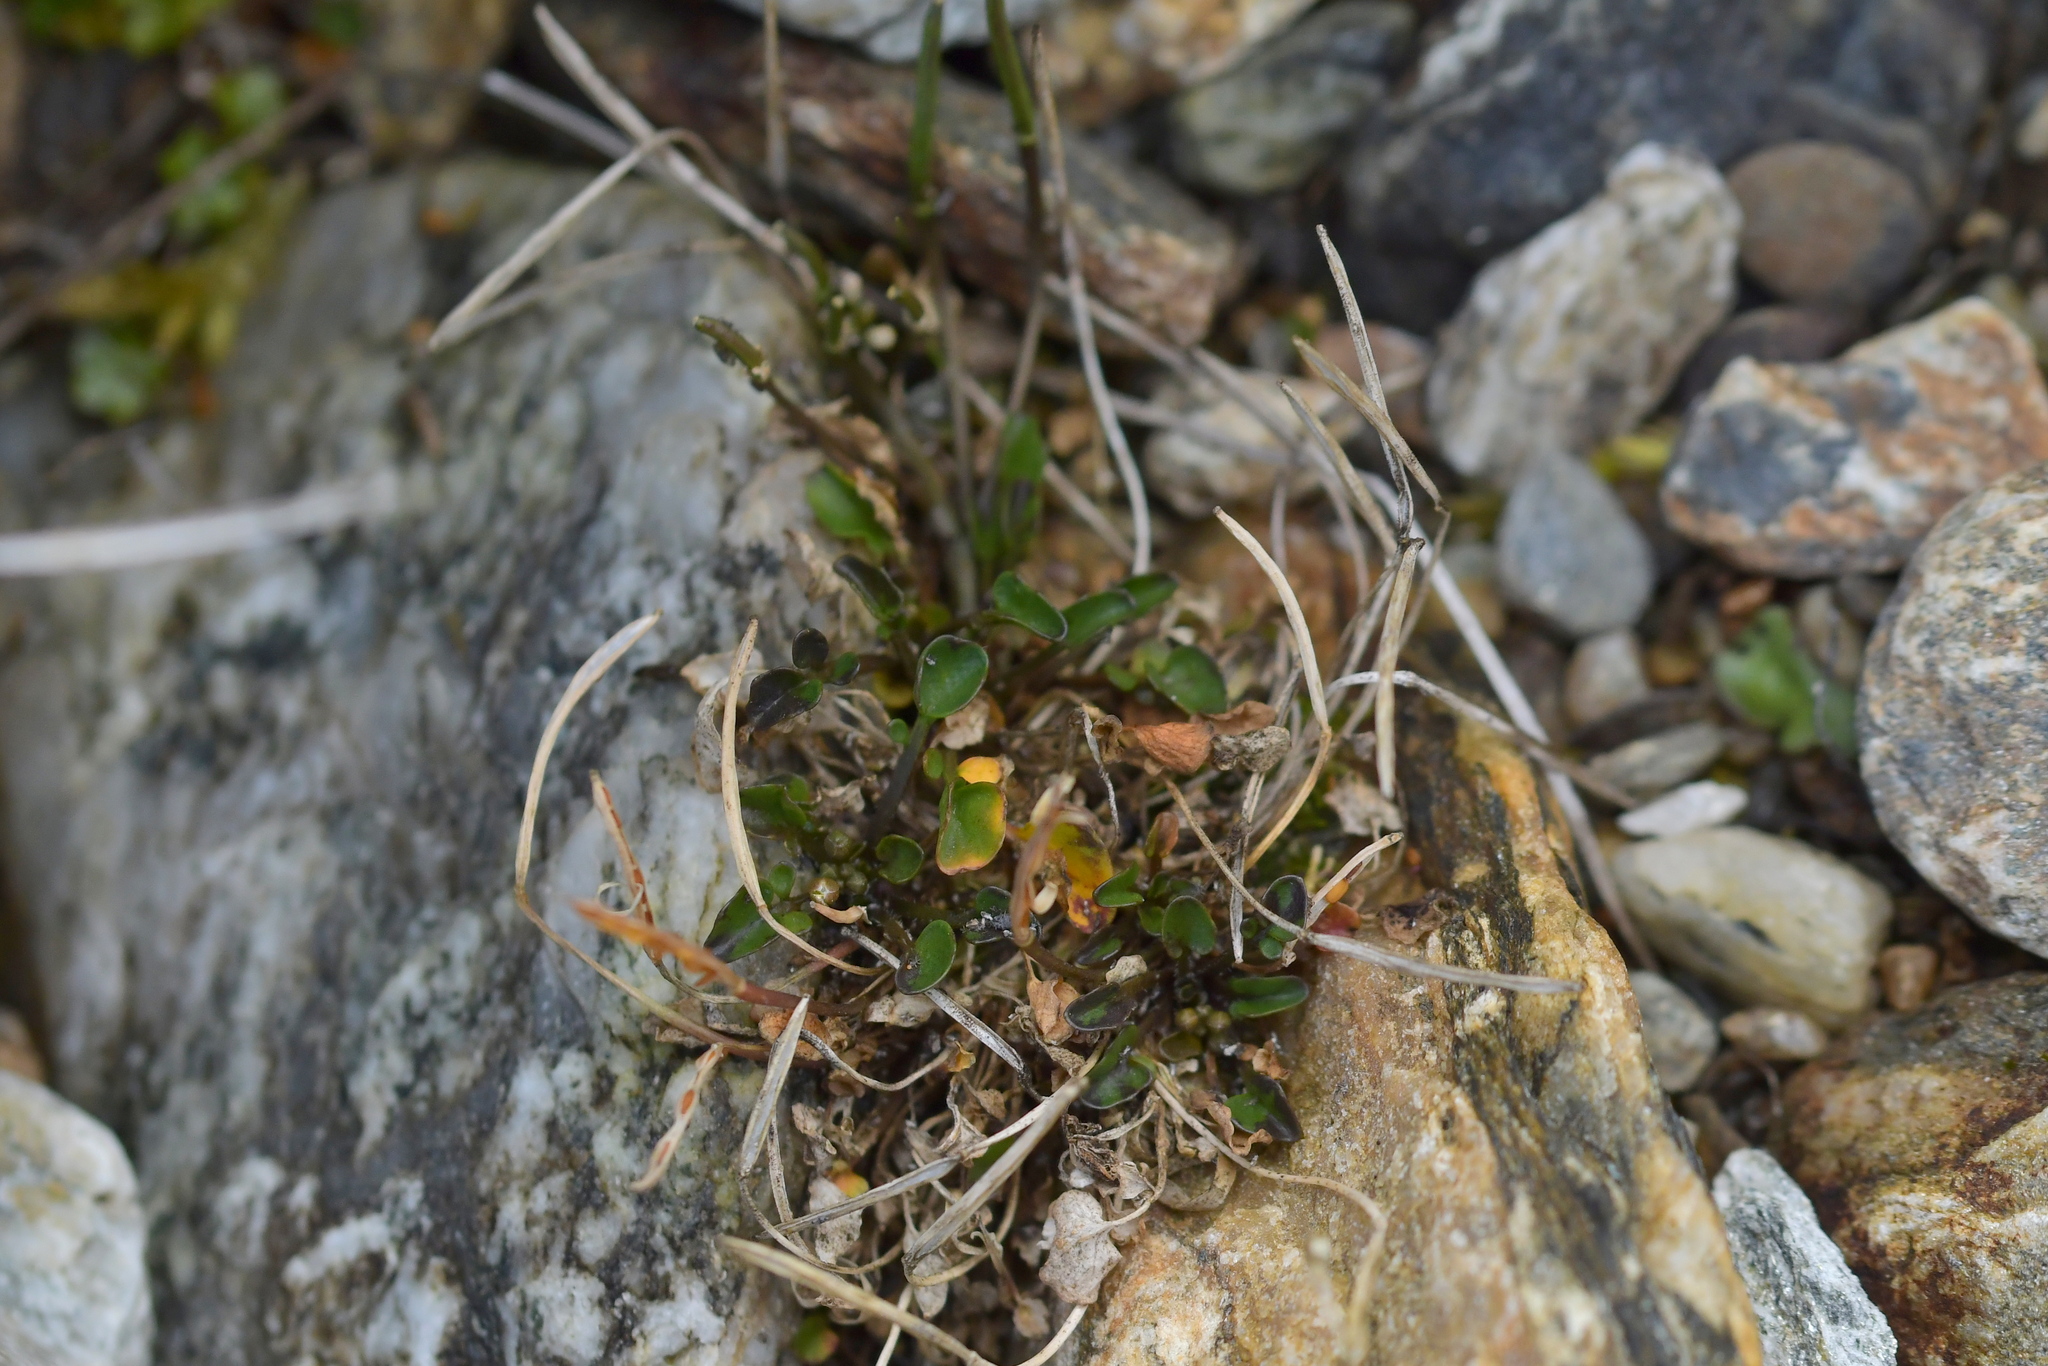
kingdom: Plantae
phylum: Tracheophyta
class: Magnoliopsida
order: Malpighiales
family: Violaceae
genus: Viola
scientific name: Viola cunninghamii
